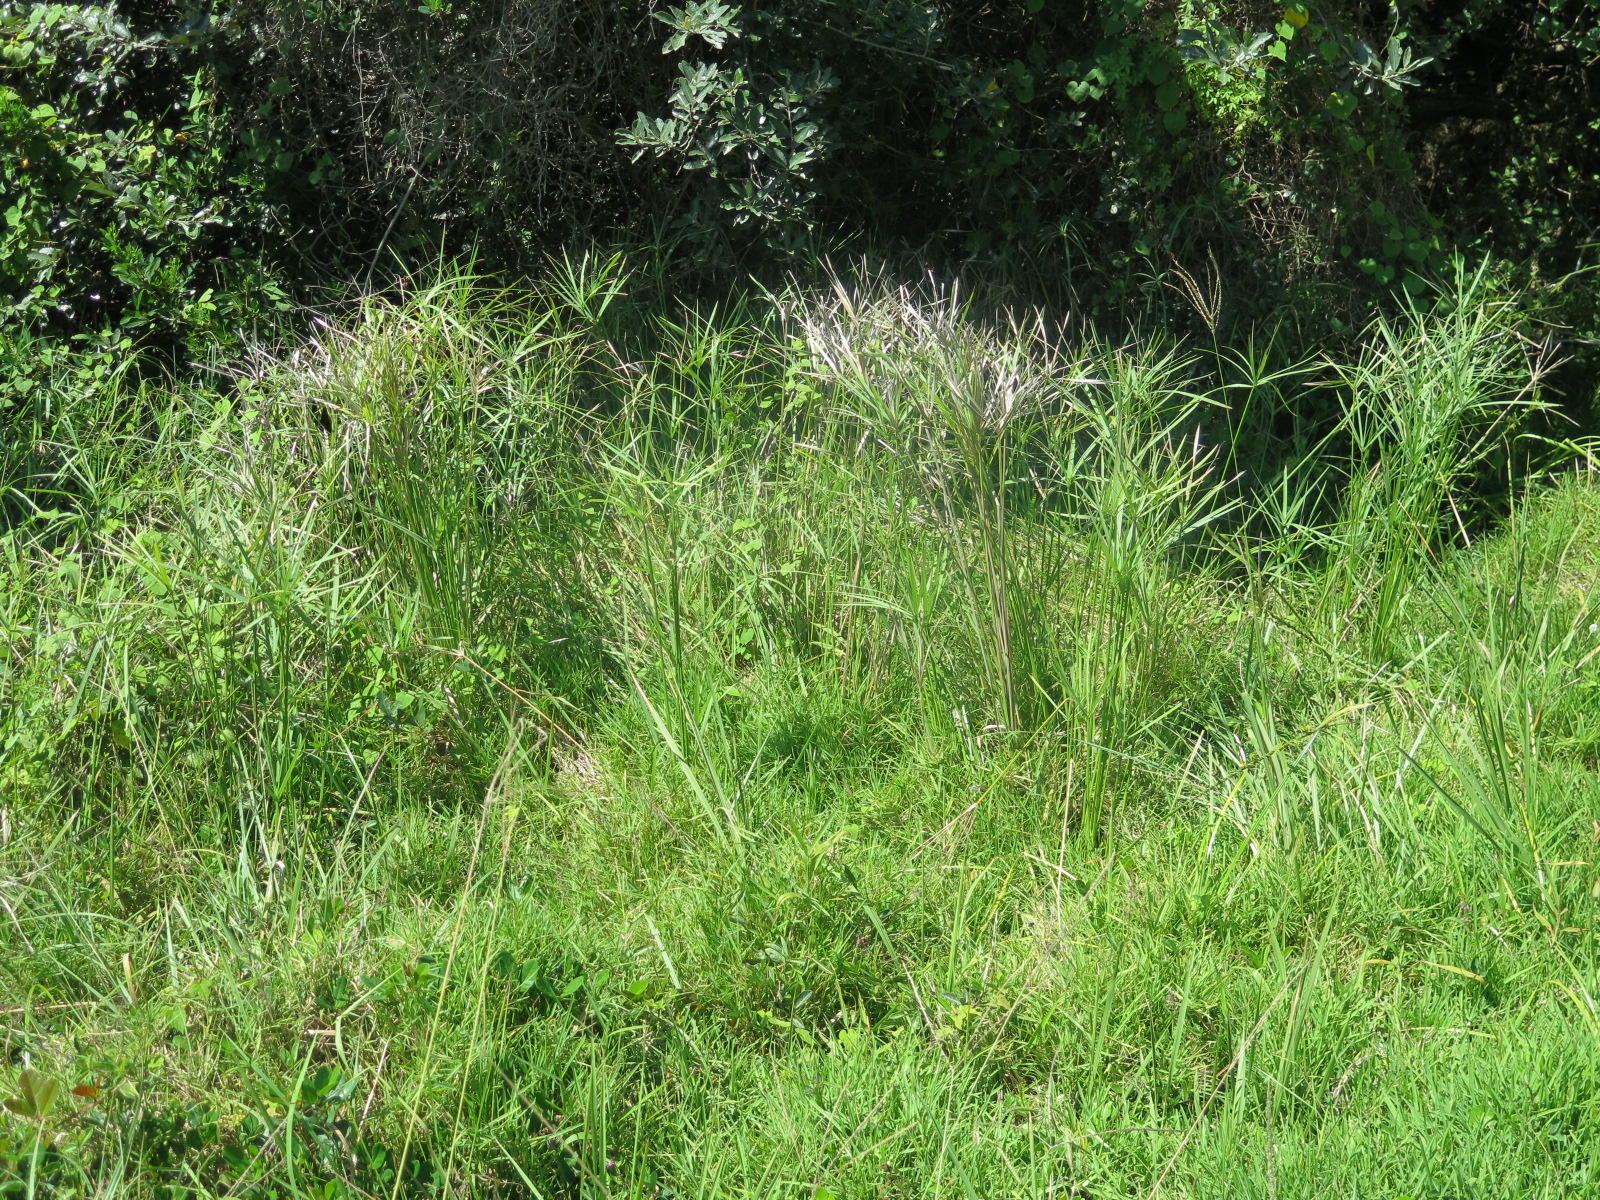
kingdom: Plantae
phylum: Tracheophyta
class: Liliopsida
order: Poales
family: Cyperaceae
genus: Cyperus
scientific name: Cyperus textilis
